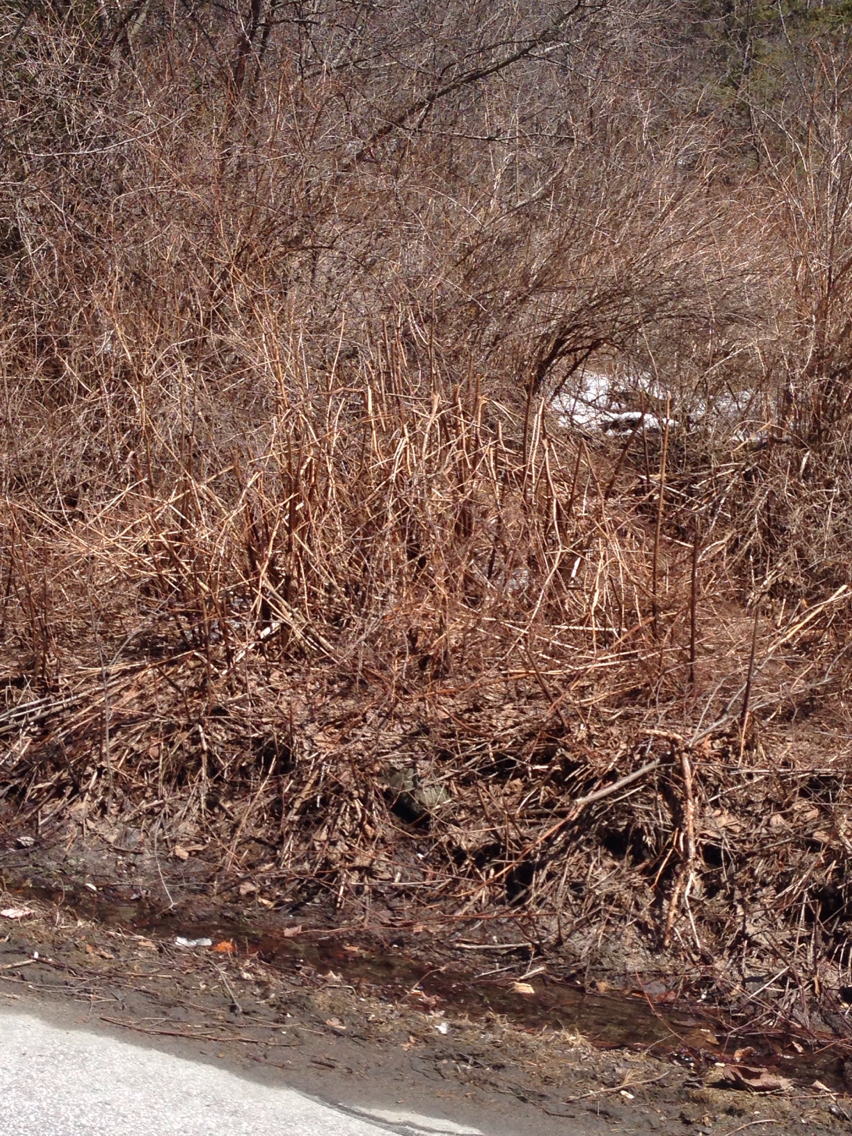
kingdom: Plantae
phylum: Tracheophyta
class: Magnoliopsida
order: Caryophyllales
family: Polygonaceae
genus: Reynoutria
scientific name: Reynoutria japonica
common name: Japanese knotweed
